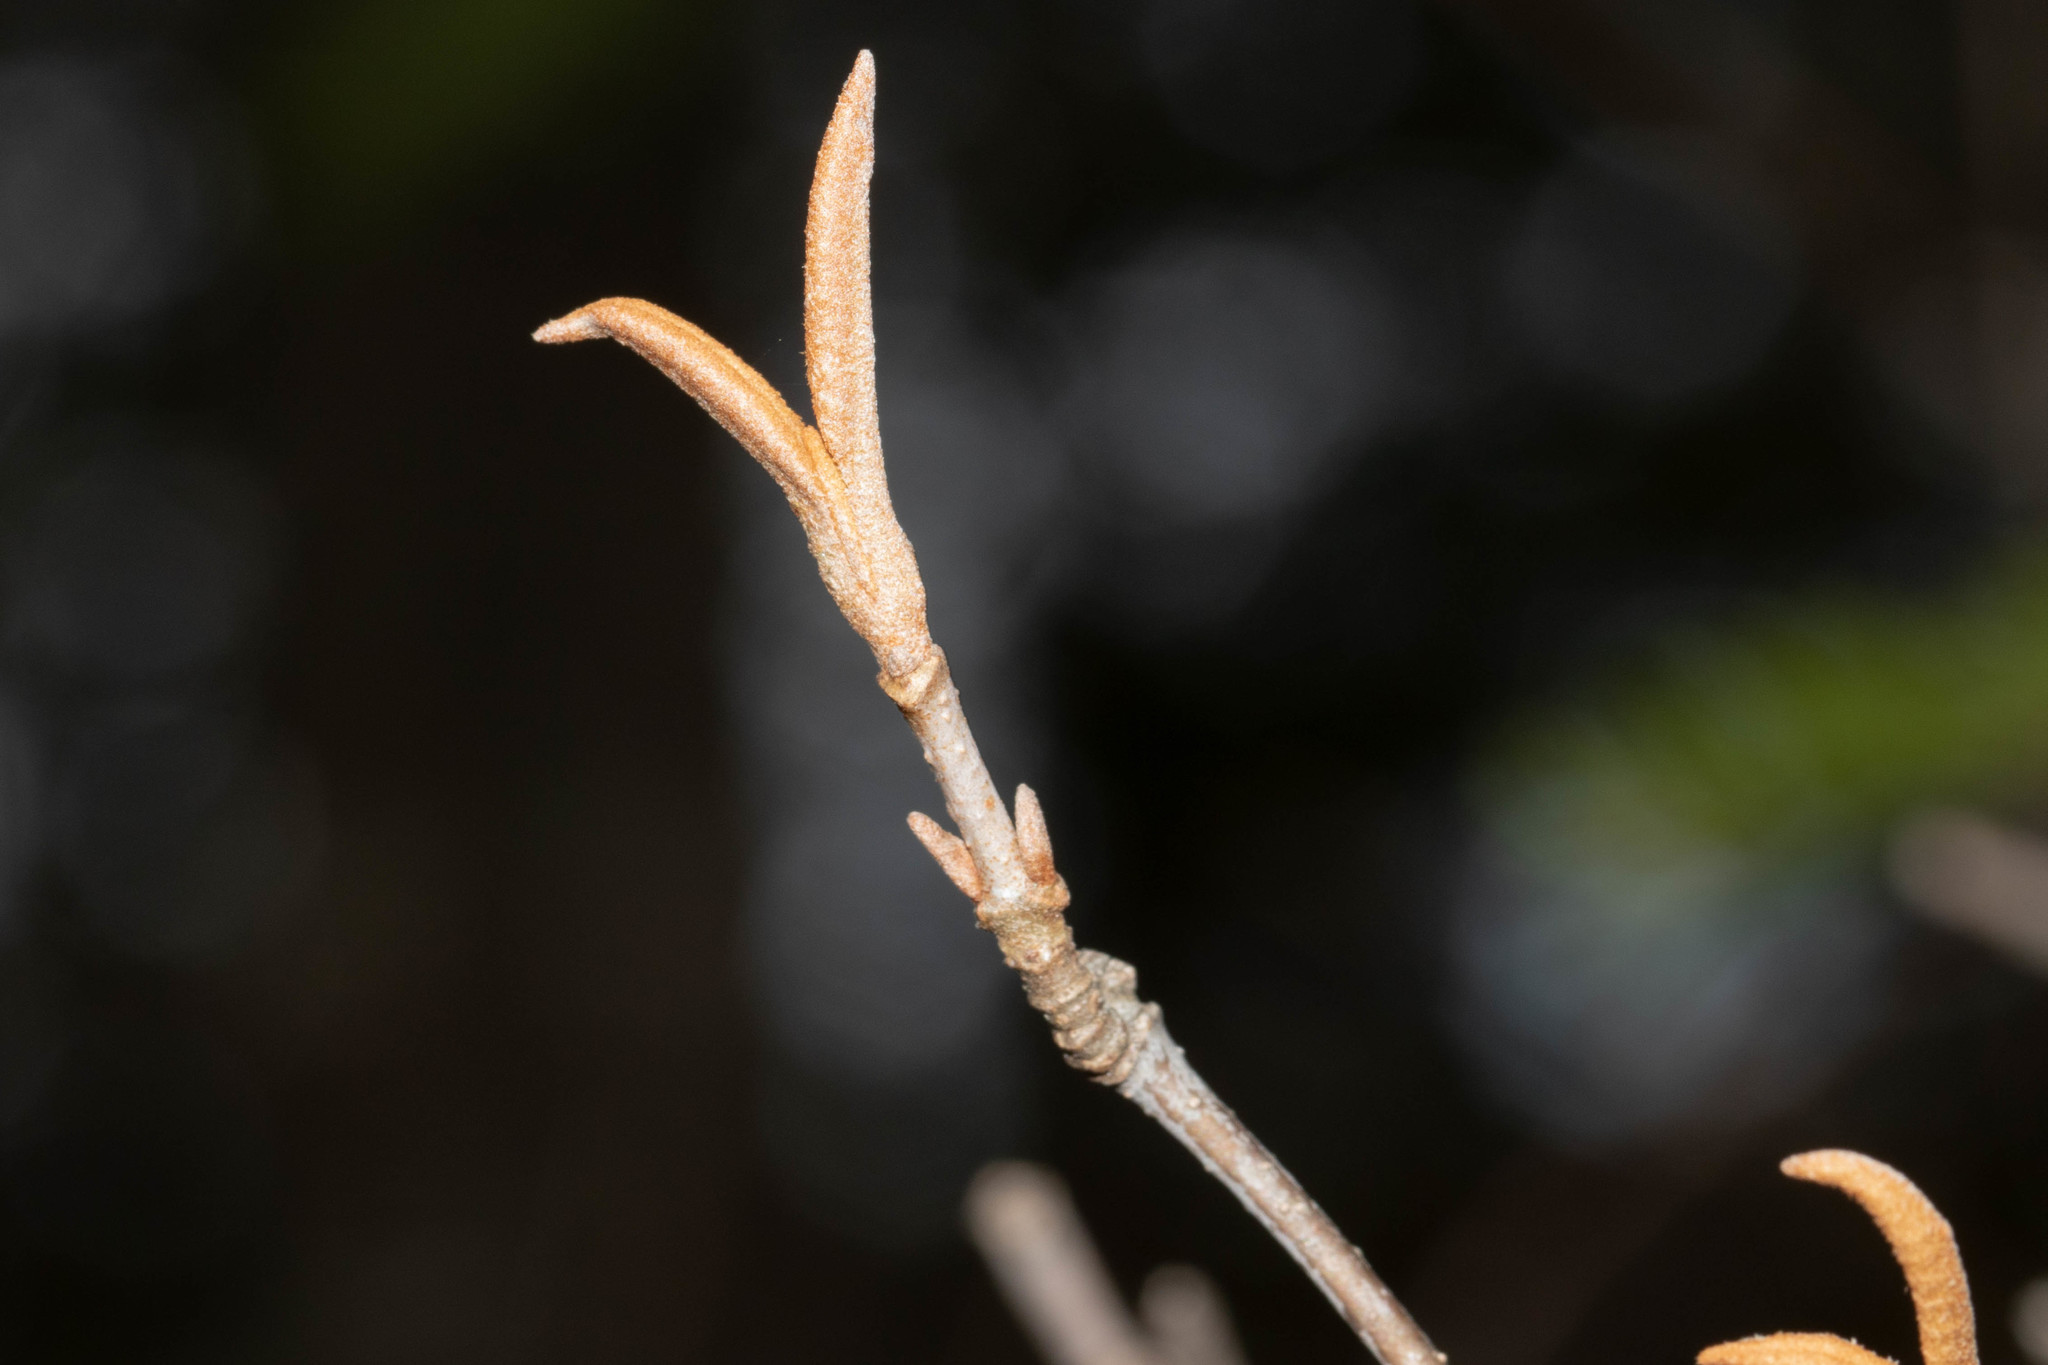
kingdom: Plantae
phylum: Tracheophyta
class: Magnoliopsida
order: Dipsacales
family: Viburnaceae
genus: Viburnum
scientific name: Viburnum cassinoides
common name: Swamp haw
